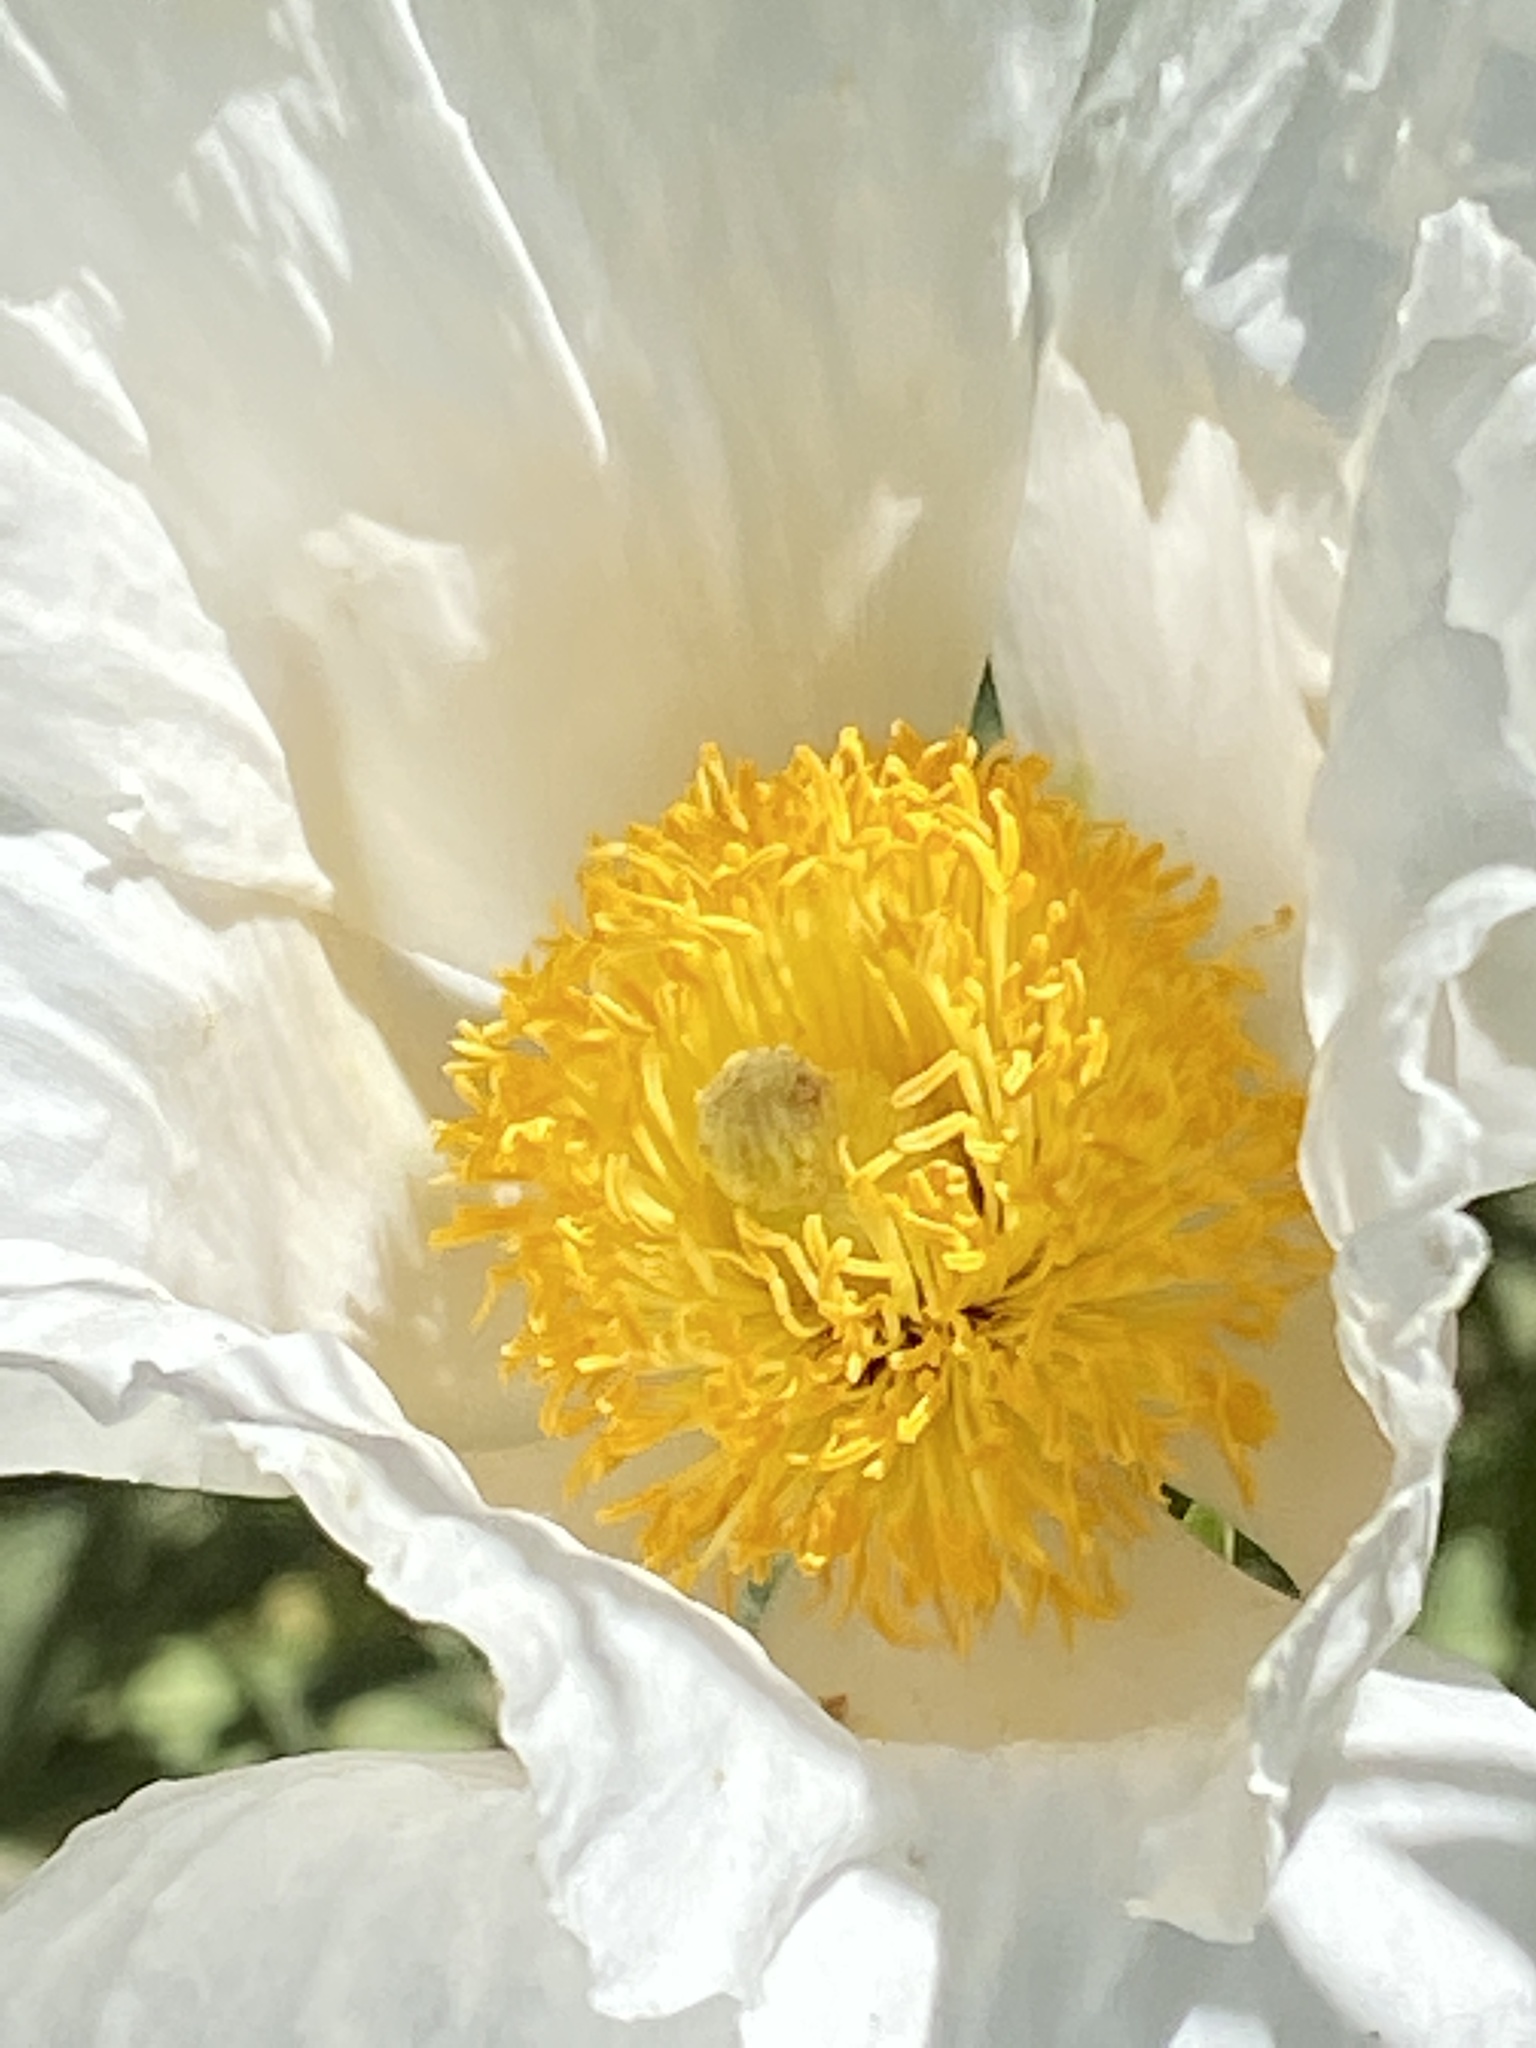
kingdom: Plantae
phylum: Tracheophyta
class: Magnoliopsida
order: Ranunculales
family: Papaveraceae
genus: Romneya
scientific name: Romneya coulteri
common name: California tree-poppy
